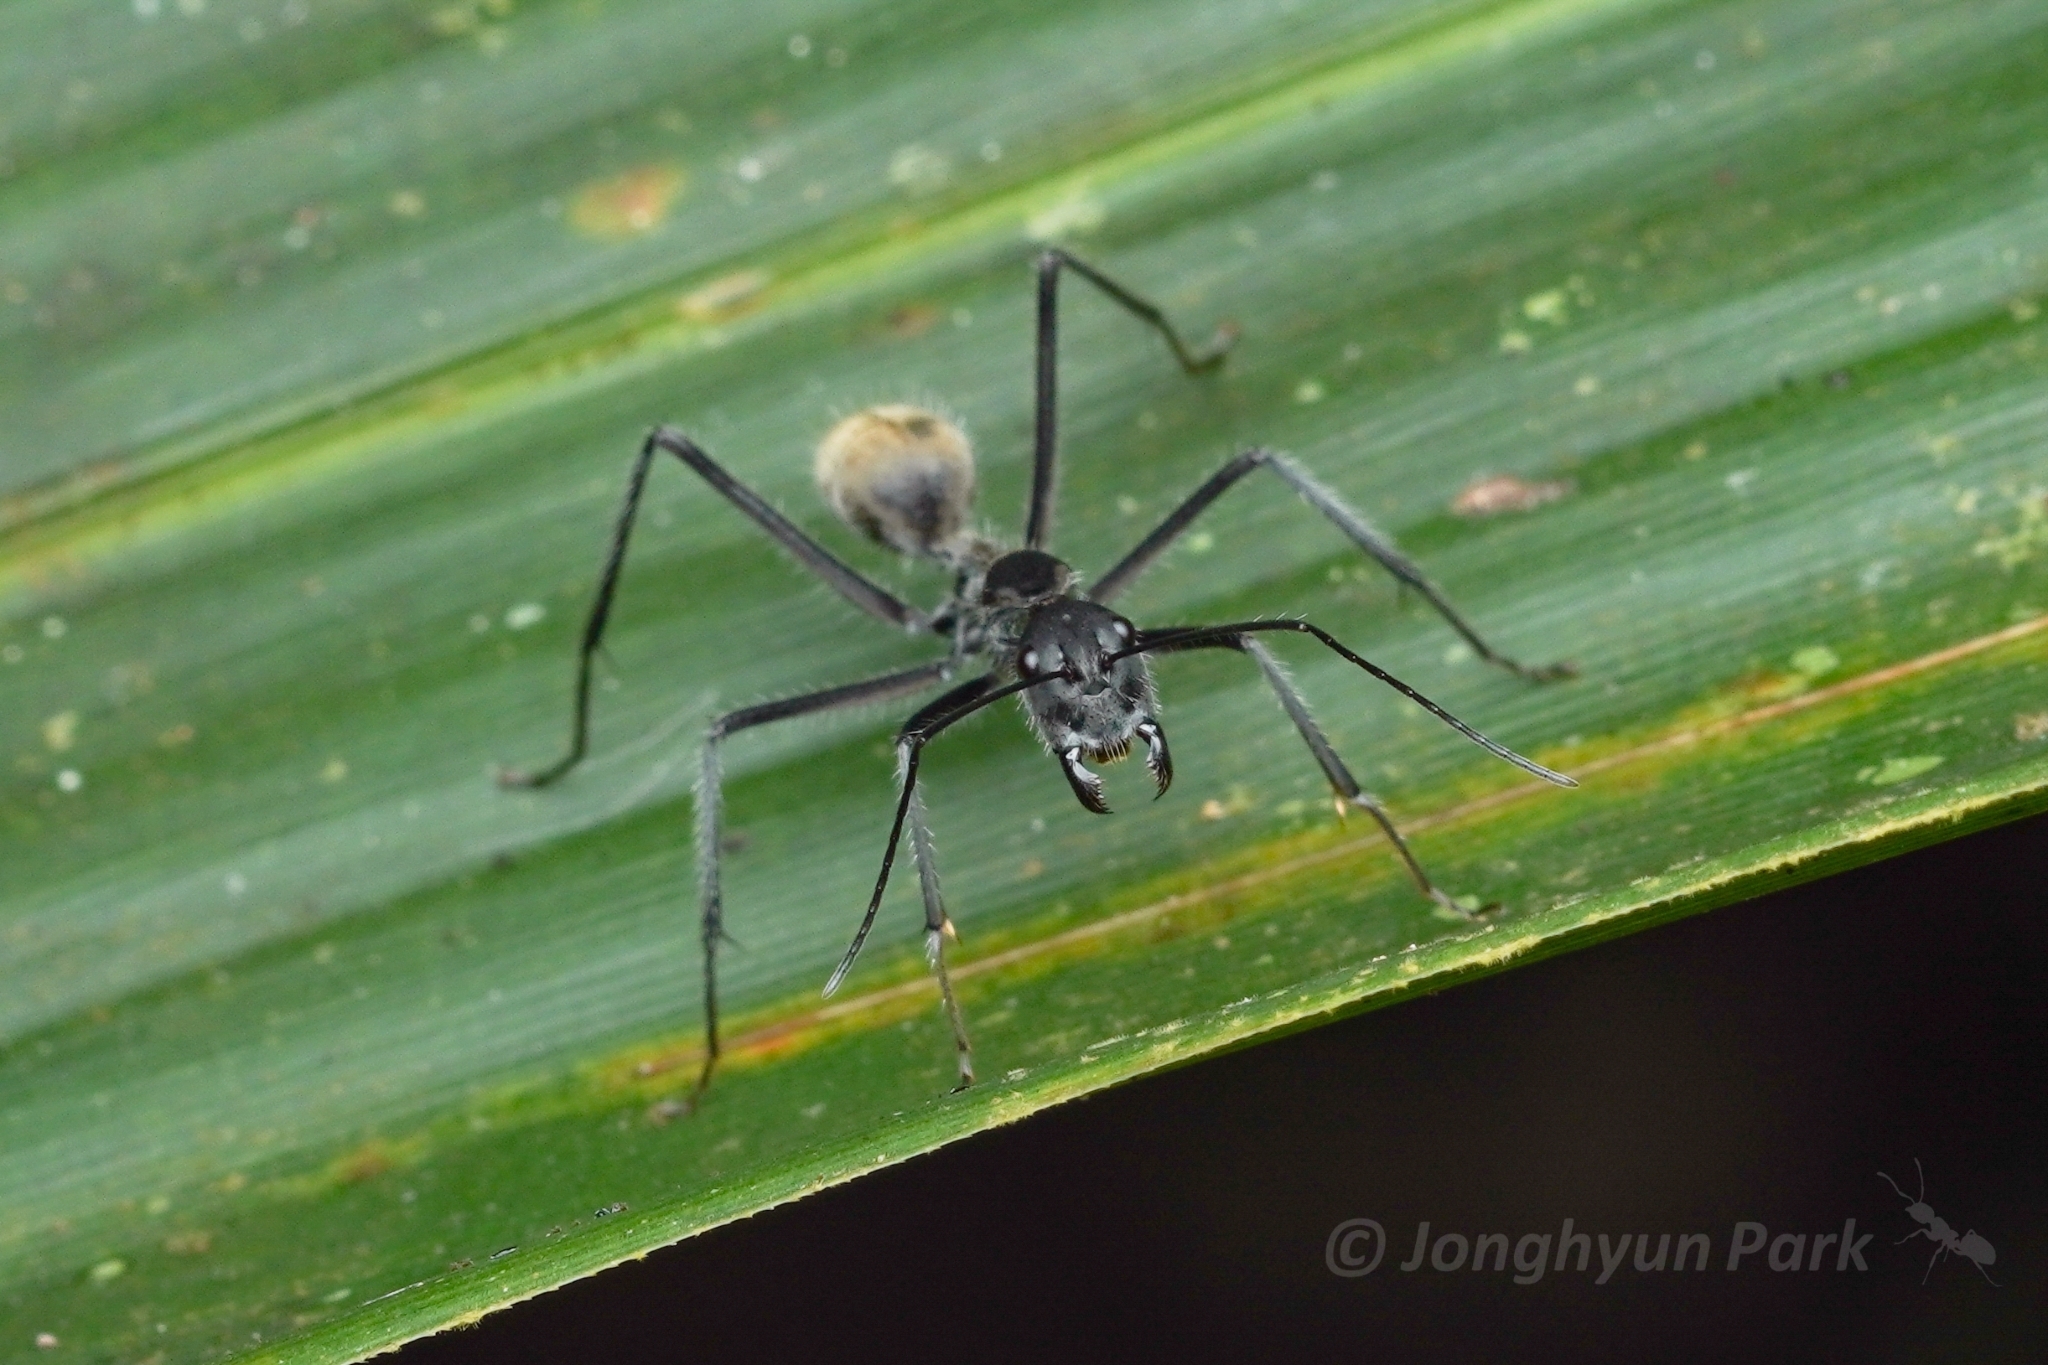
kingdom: Animalia
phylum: Arthropoda
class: Insecta
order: Hymenoptera
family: Formicidae
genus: Camponotus
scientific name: Camponotus camelinus
